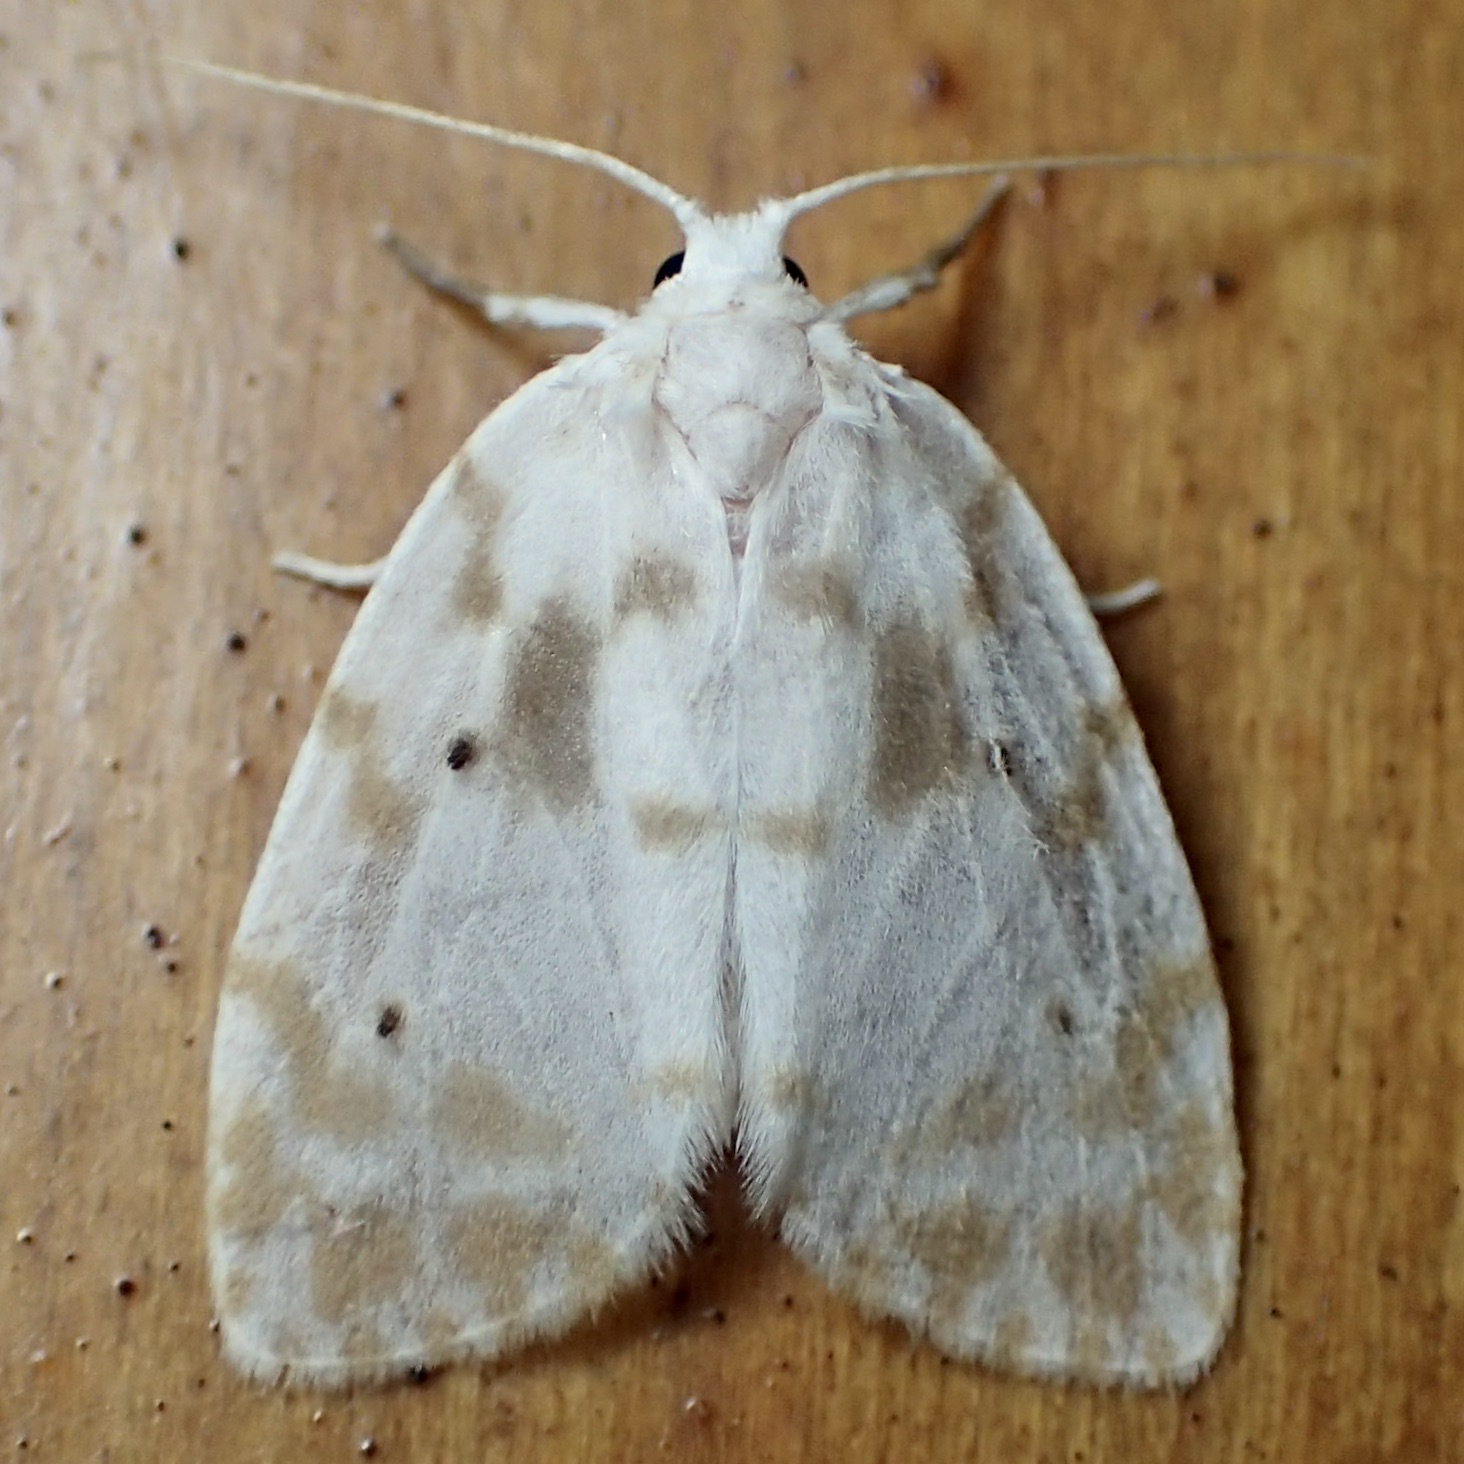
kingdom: Animalia
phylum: Arthropoda
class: Insecta
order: Lepidoptera
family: Erebidae
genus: Schistophleps
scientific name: Schistophleps albida
